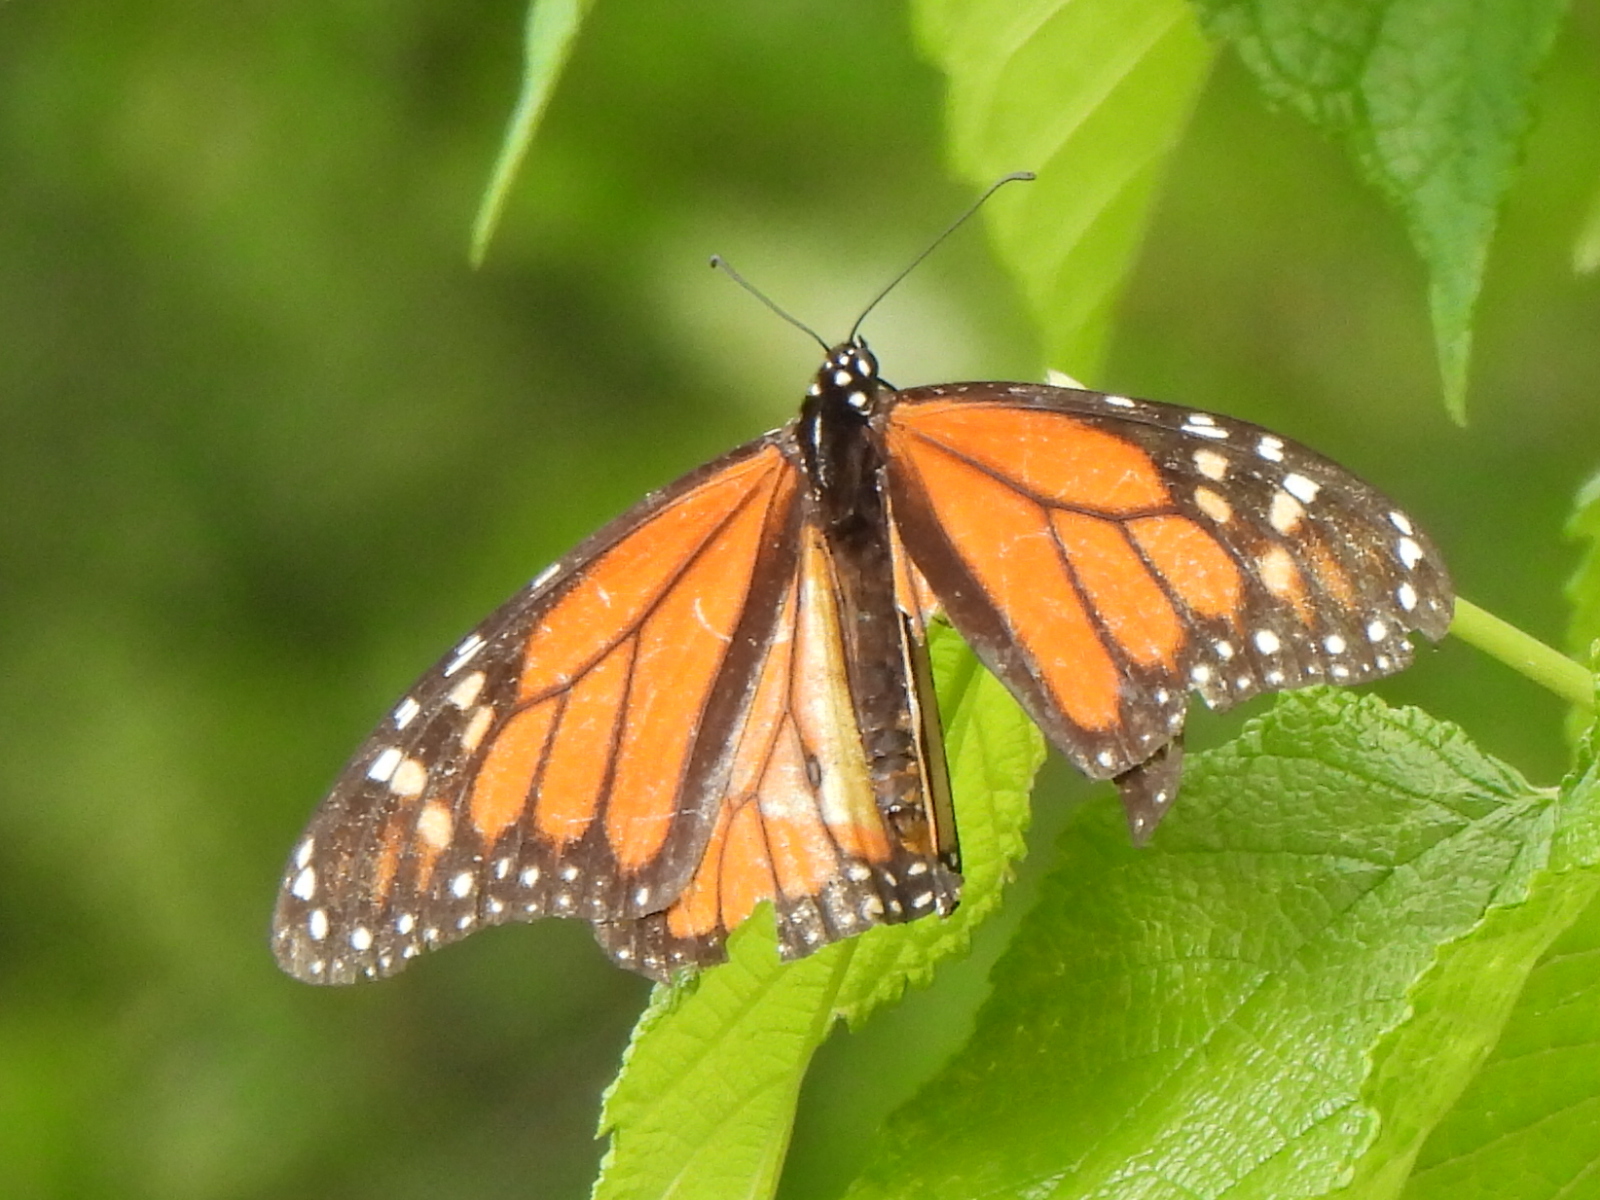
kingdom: Animalia
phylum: Arthropoda
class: Insecta
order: Lepidoptera
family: Nymphalidae
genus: Danaus
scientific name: Danaus plexippus
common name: Monarch
